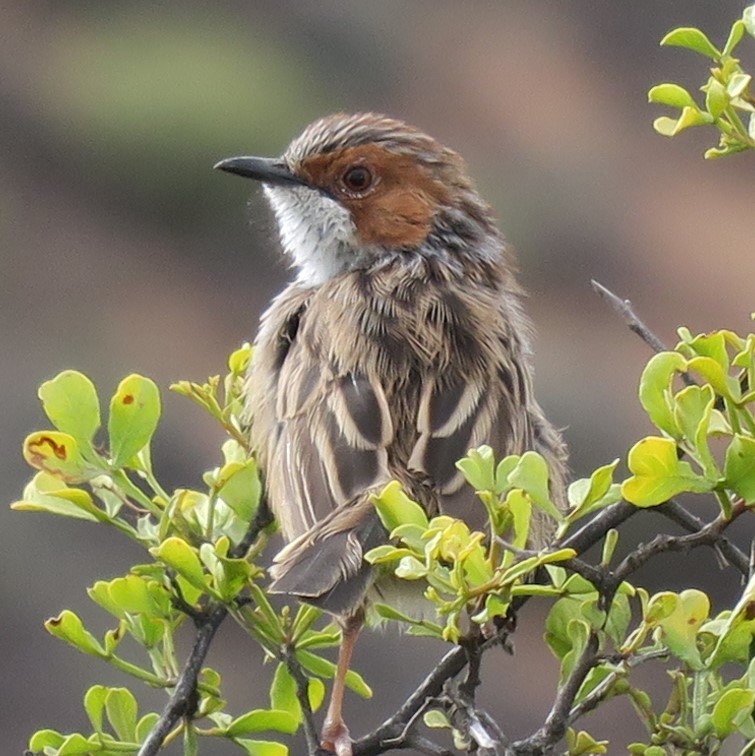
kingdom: Animalia
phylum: Chordata
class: Aves
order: Passeriformes
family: Cisticolidae
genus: Malcorus
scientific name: Malcorus pectoralis
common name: Rufous-eared warbler
